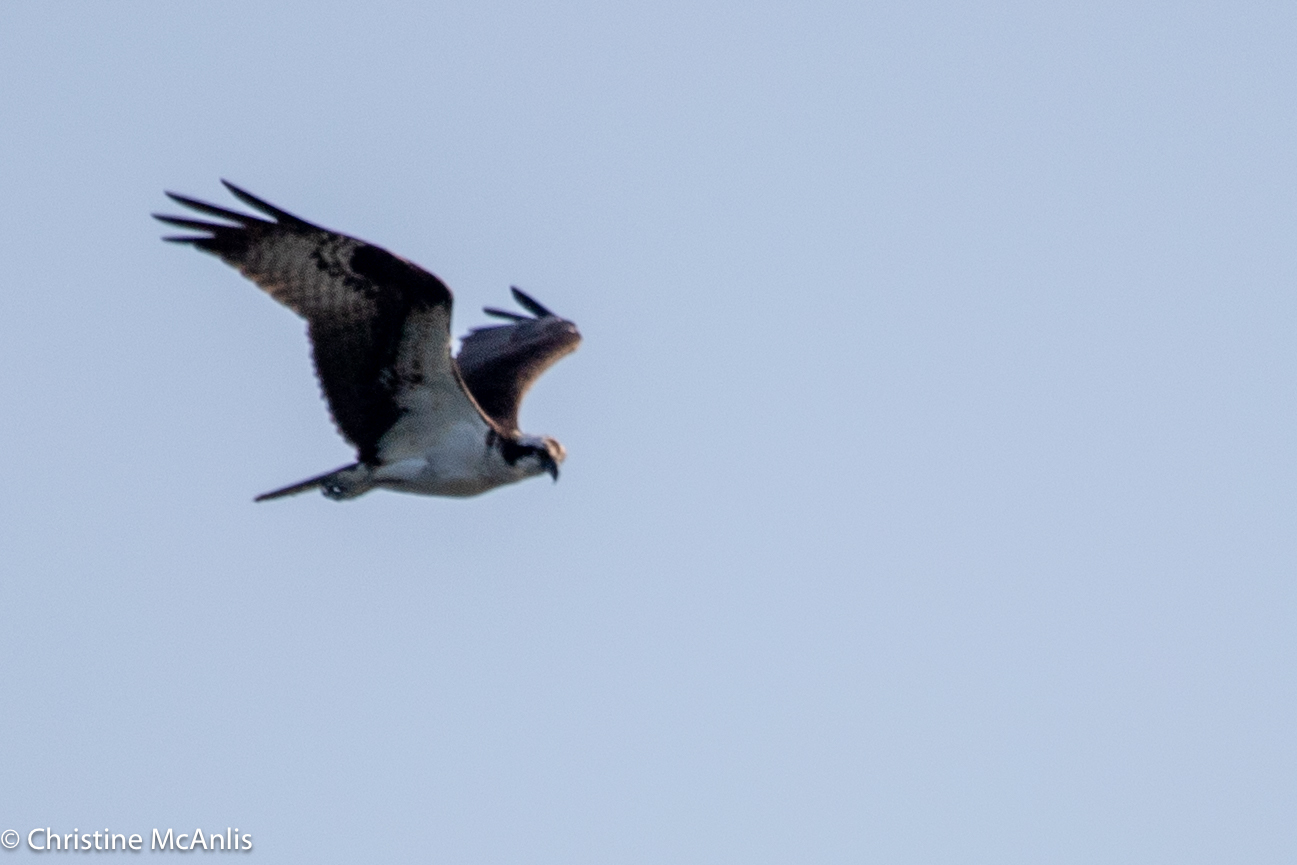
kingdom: Animalia
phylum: Chordata
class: Aves
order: Accipitriformes
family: Pandionidae
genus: Pandion
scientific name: Pandion haliaetus
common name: Osprey
